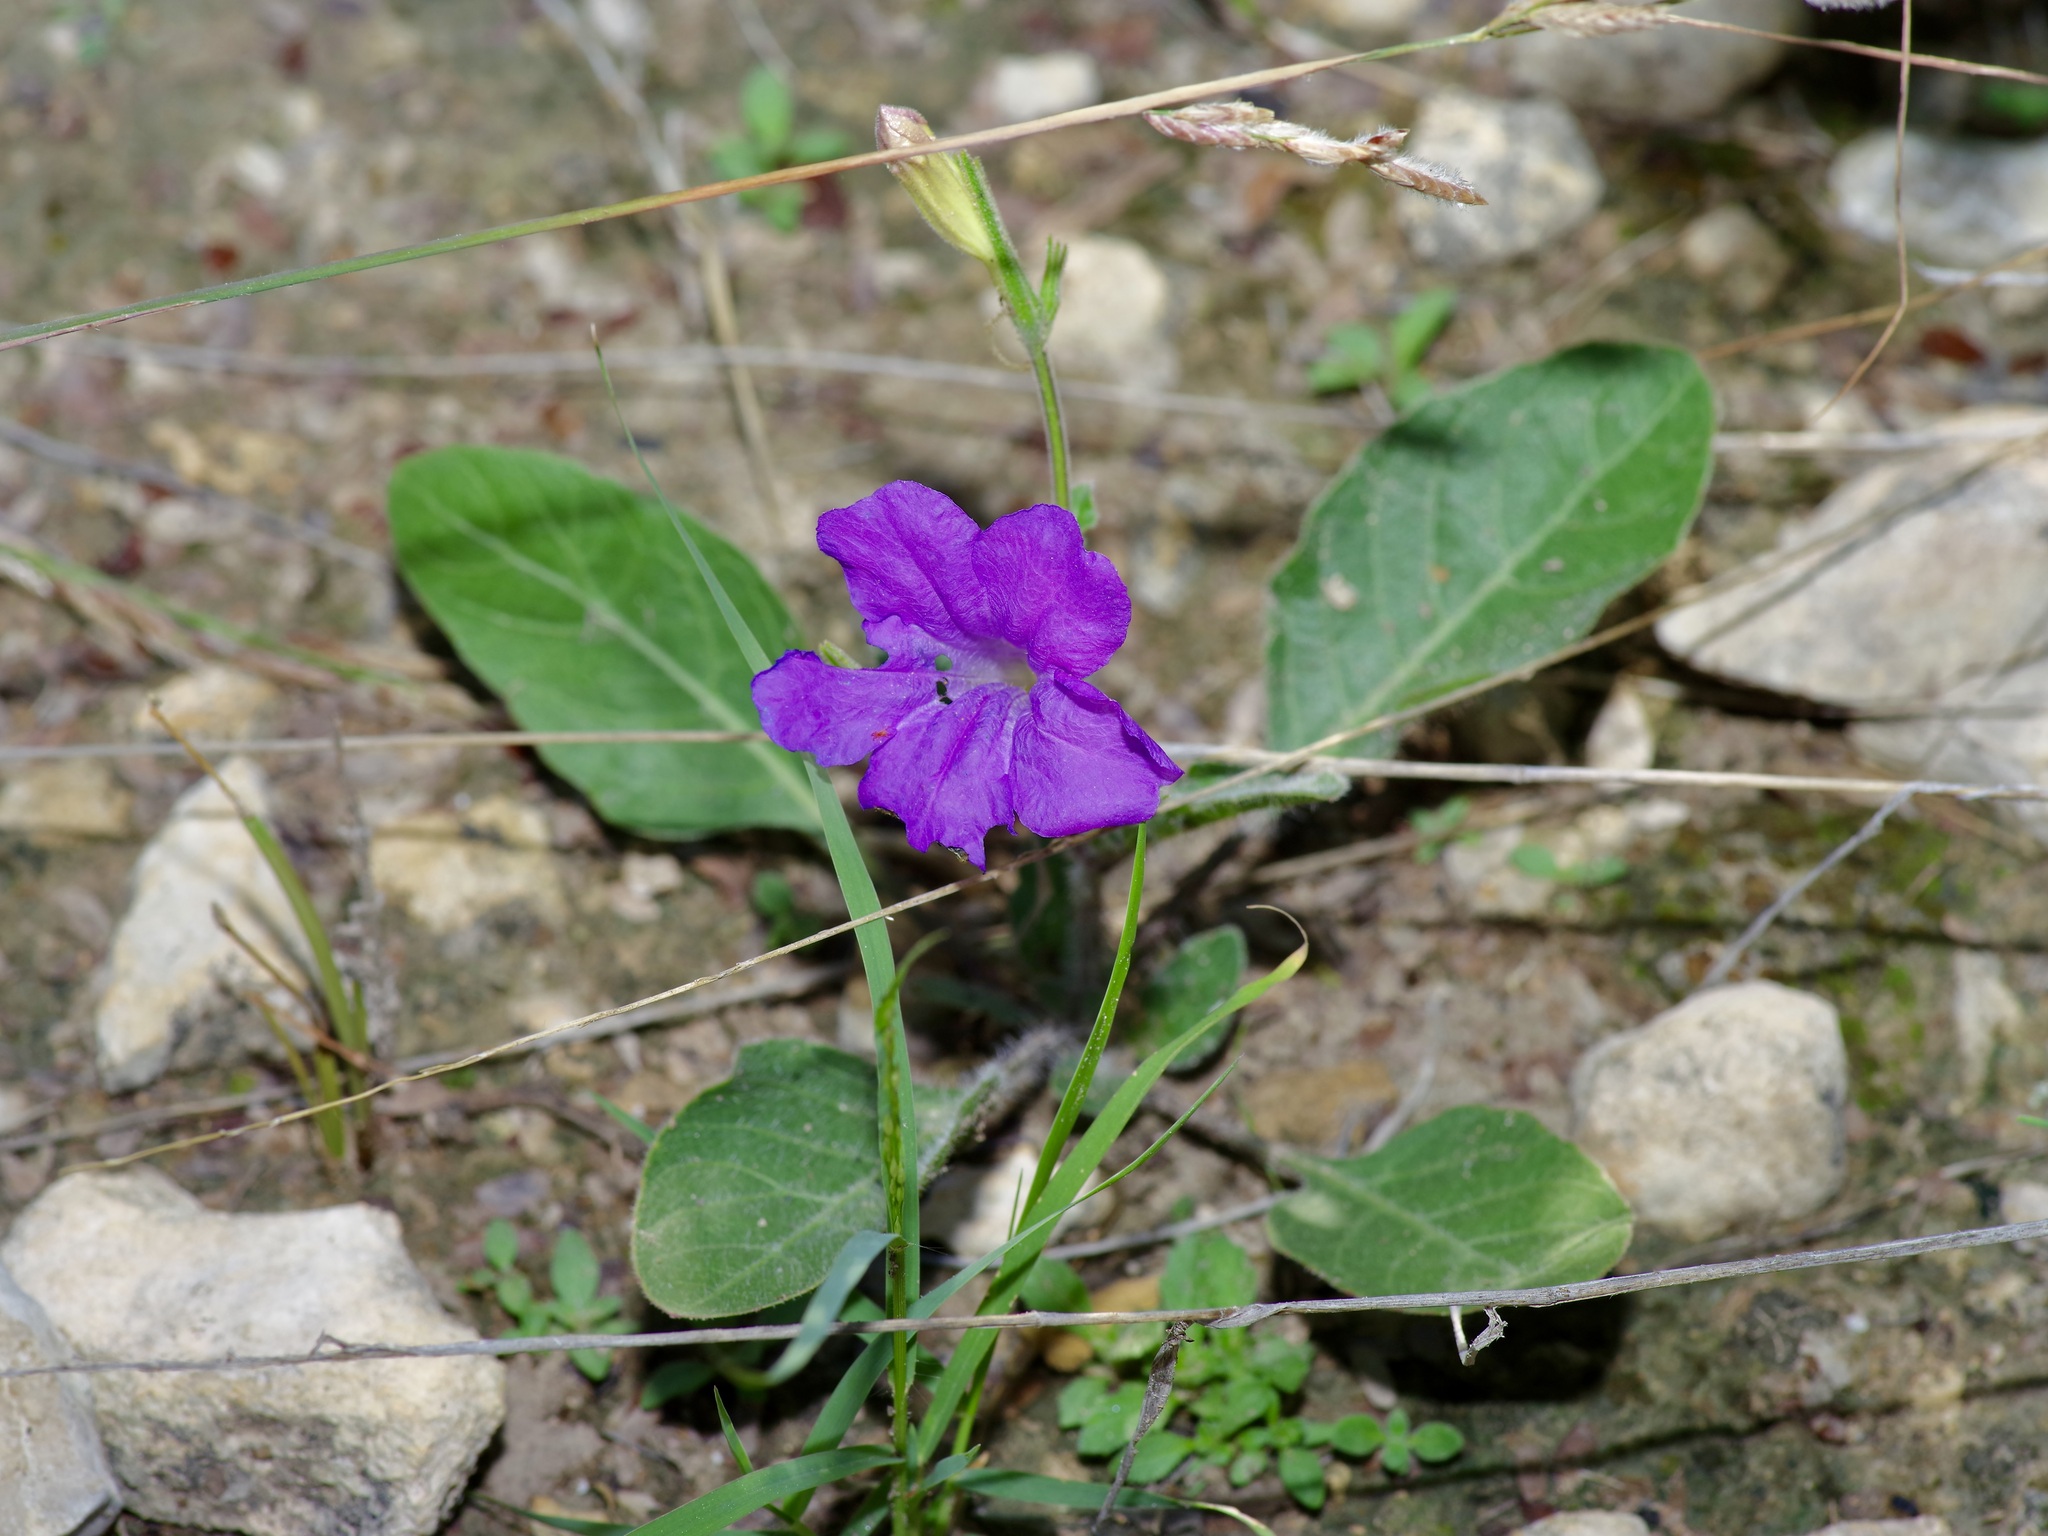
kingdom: Plantae
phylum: Tracheophyta
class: Magnoliopsida
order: Lamiales
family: Acanthaceae
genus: Ruellia
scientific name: Ruellia corzoi
